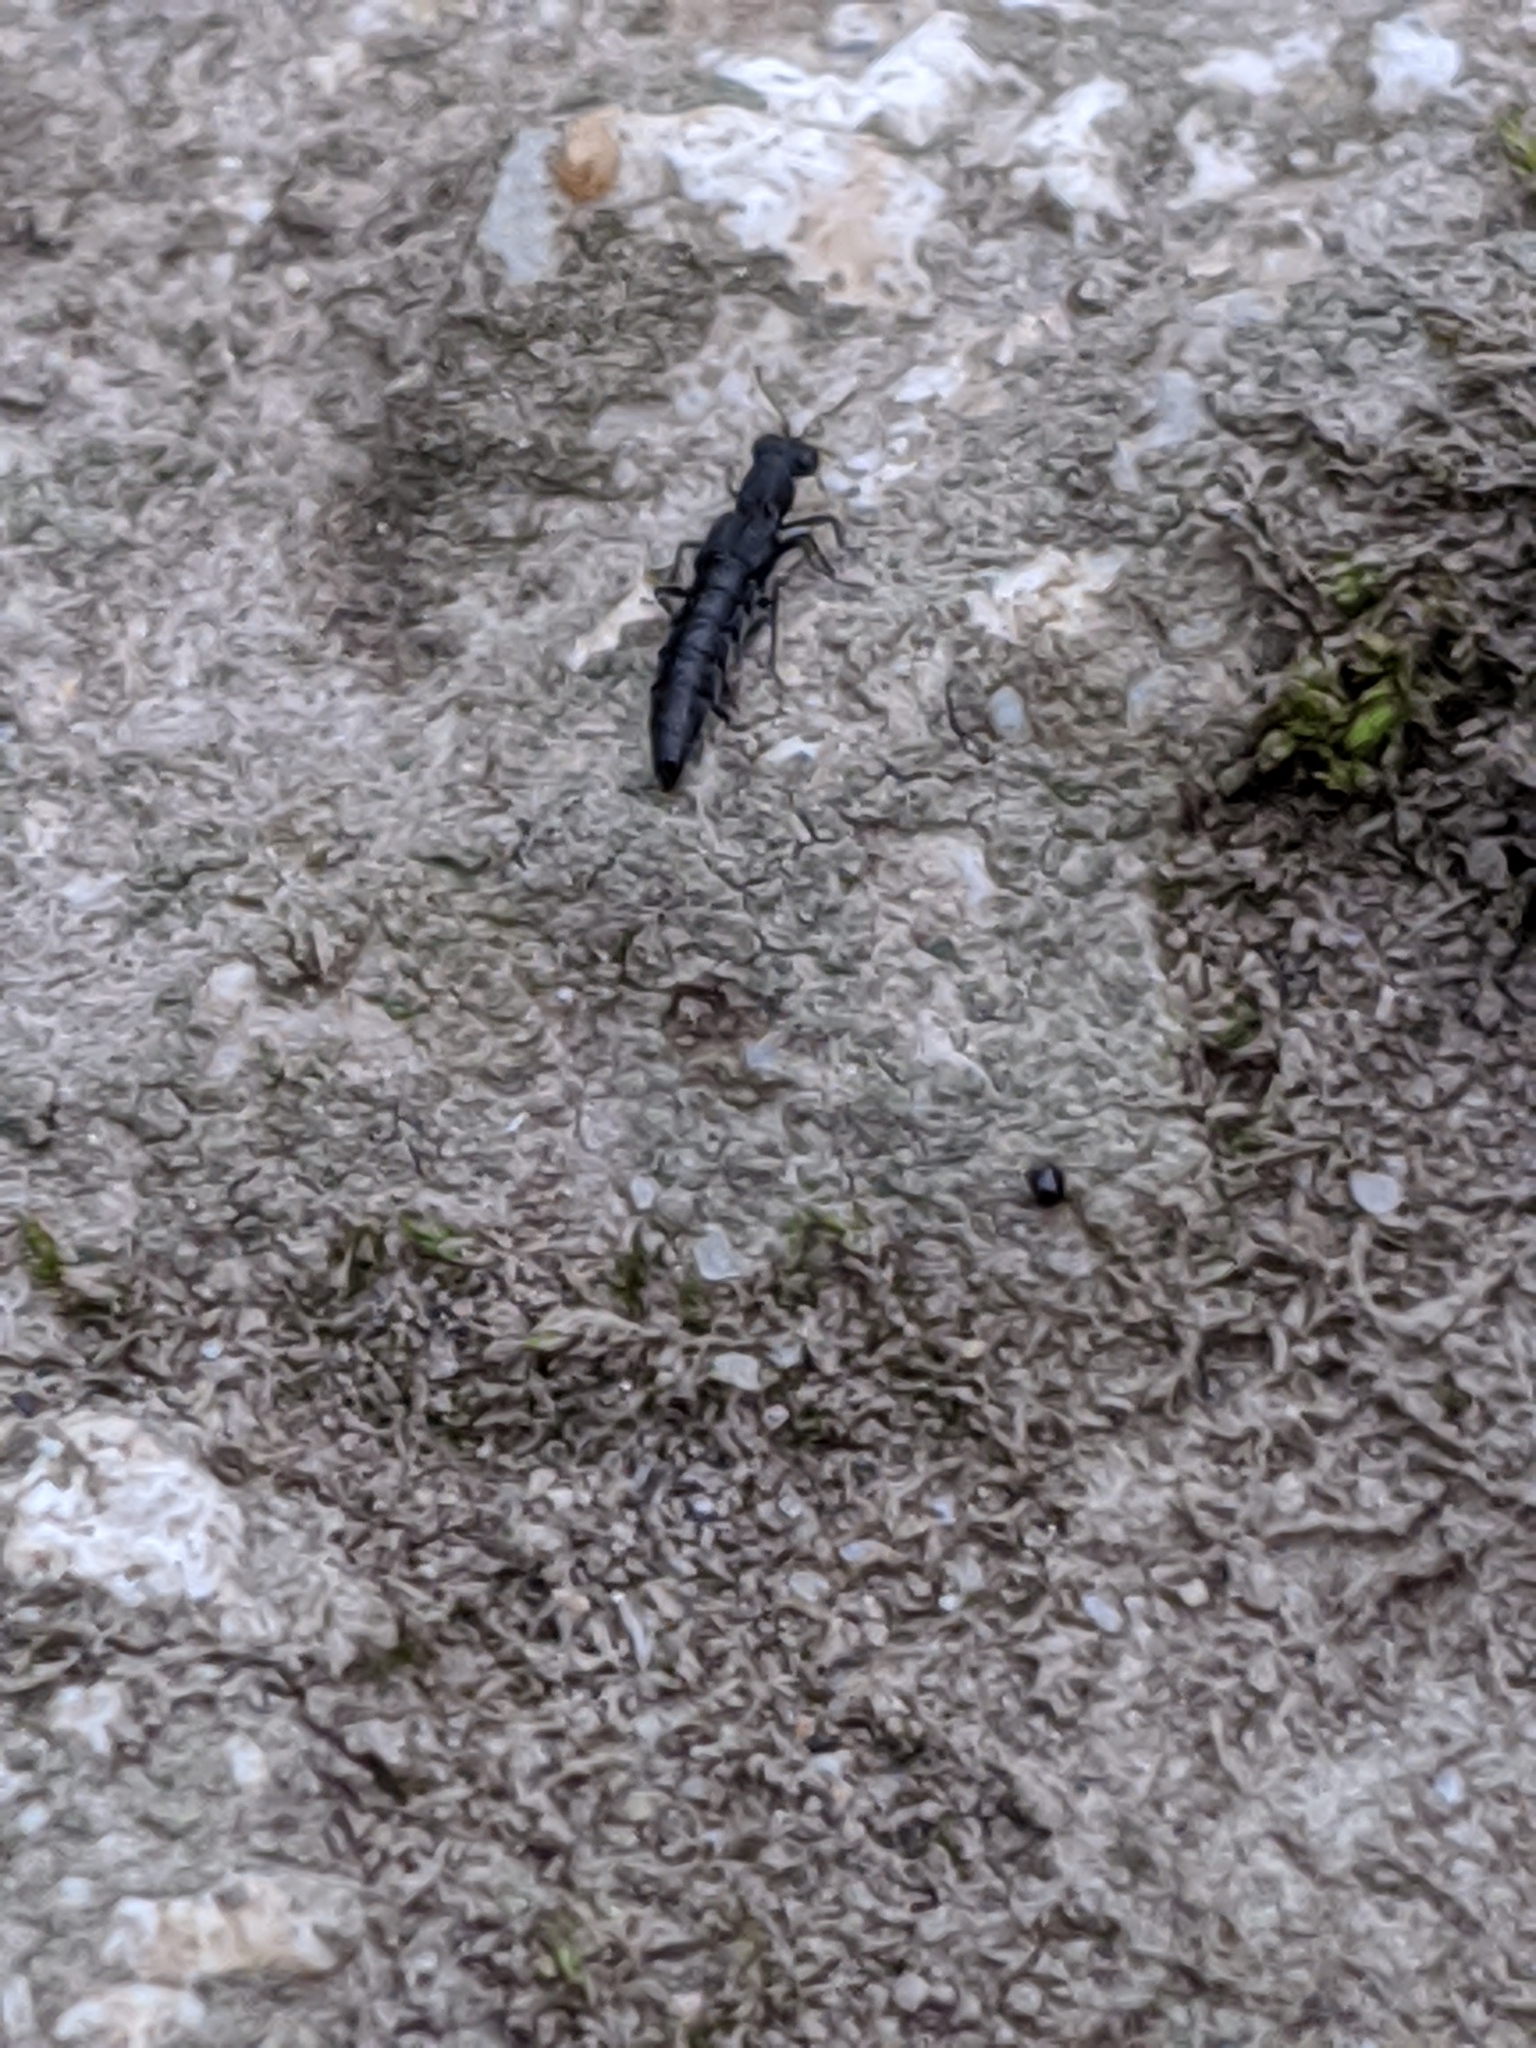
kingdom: Animalia
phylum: Arthropoda
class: Insecta
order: Coleoptera
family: Staphylinidae
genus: Stenus
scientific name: Stenus
